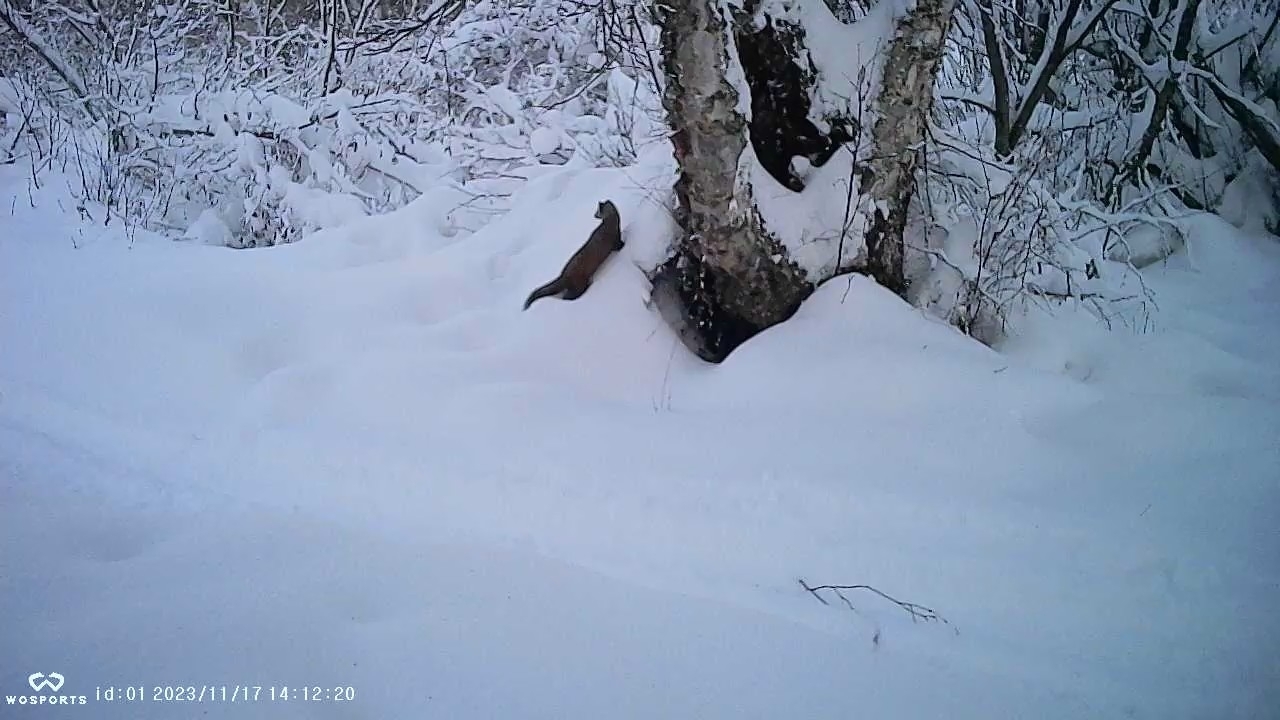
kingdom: Animalia
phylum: Chordata
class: Mammalia
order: Carnivora
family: Mustelidae
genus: Martes
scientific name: Martes americana
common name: American marten
